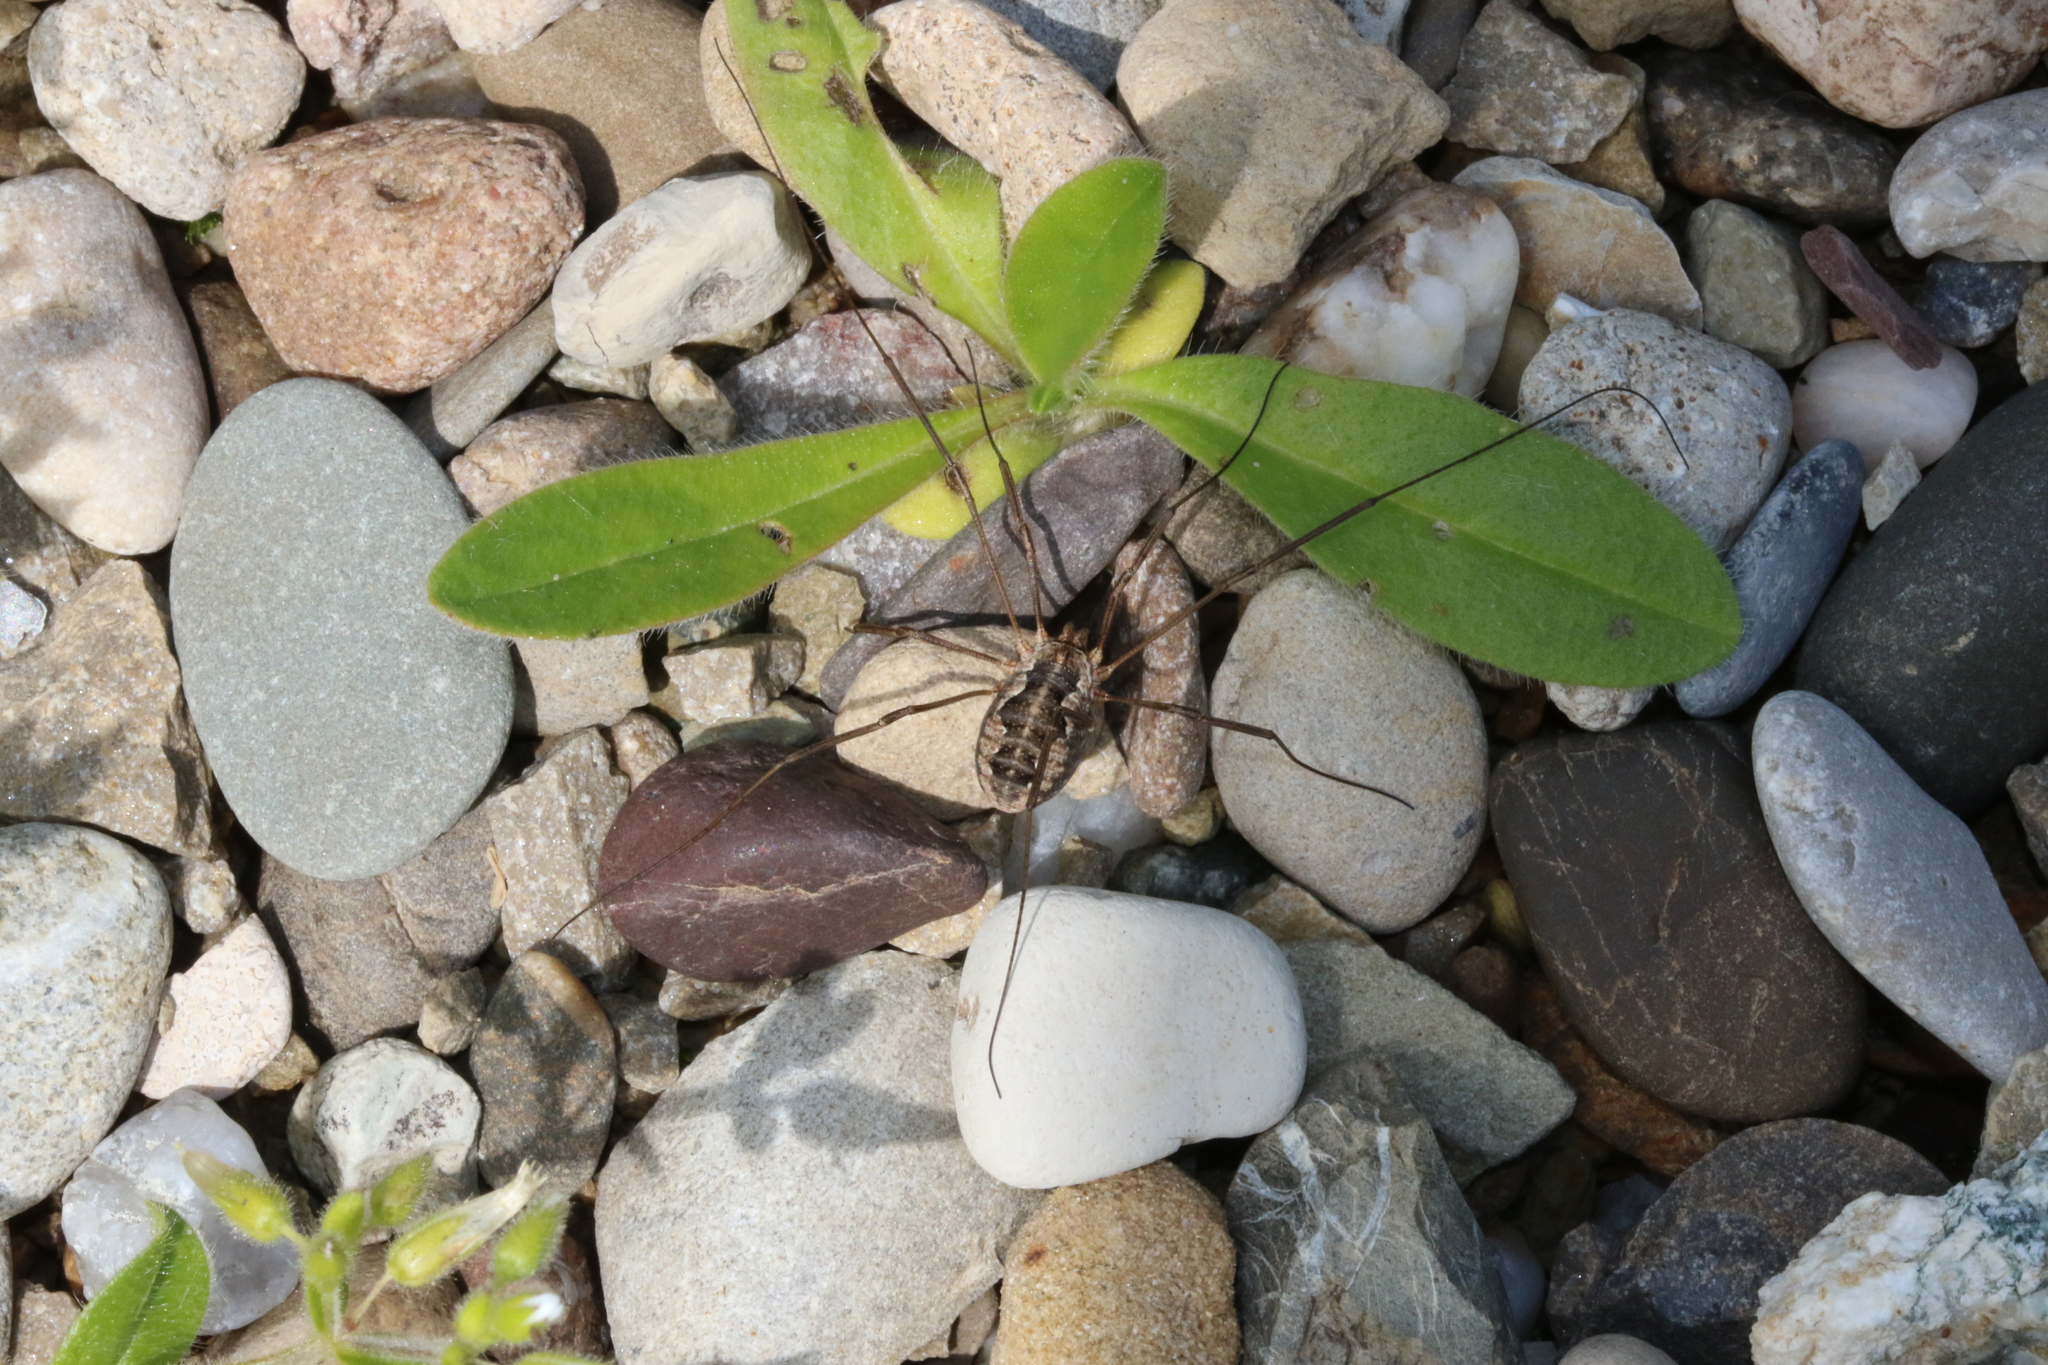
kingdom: Animalia
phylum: Arthropoda
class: Arachnida
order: Opiliones
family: Phalangiidae
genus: Phalangium
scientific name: Phalangium opilio
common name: Daddy longleg
